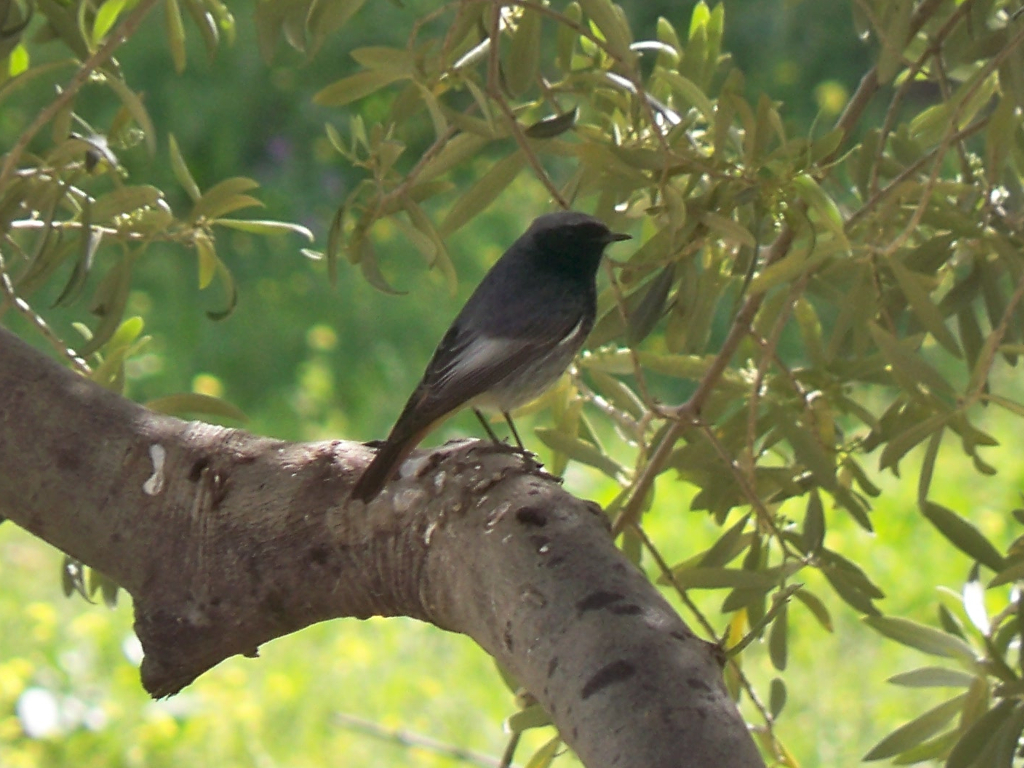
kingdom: Animalia
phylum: Chordata
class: Aves
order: Passeriformes
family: Muscicapidae
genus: Phoenicurus
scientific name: Phoenicurus ochruros
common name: Black redstart
